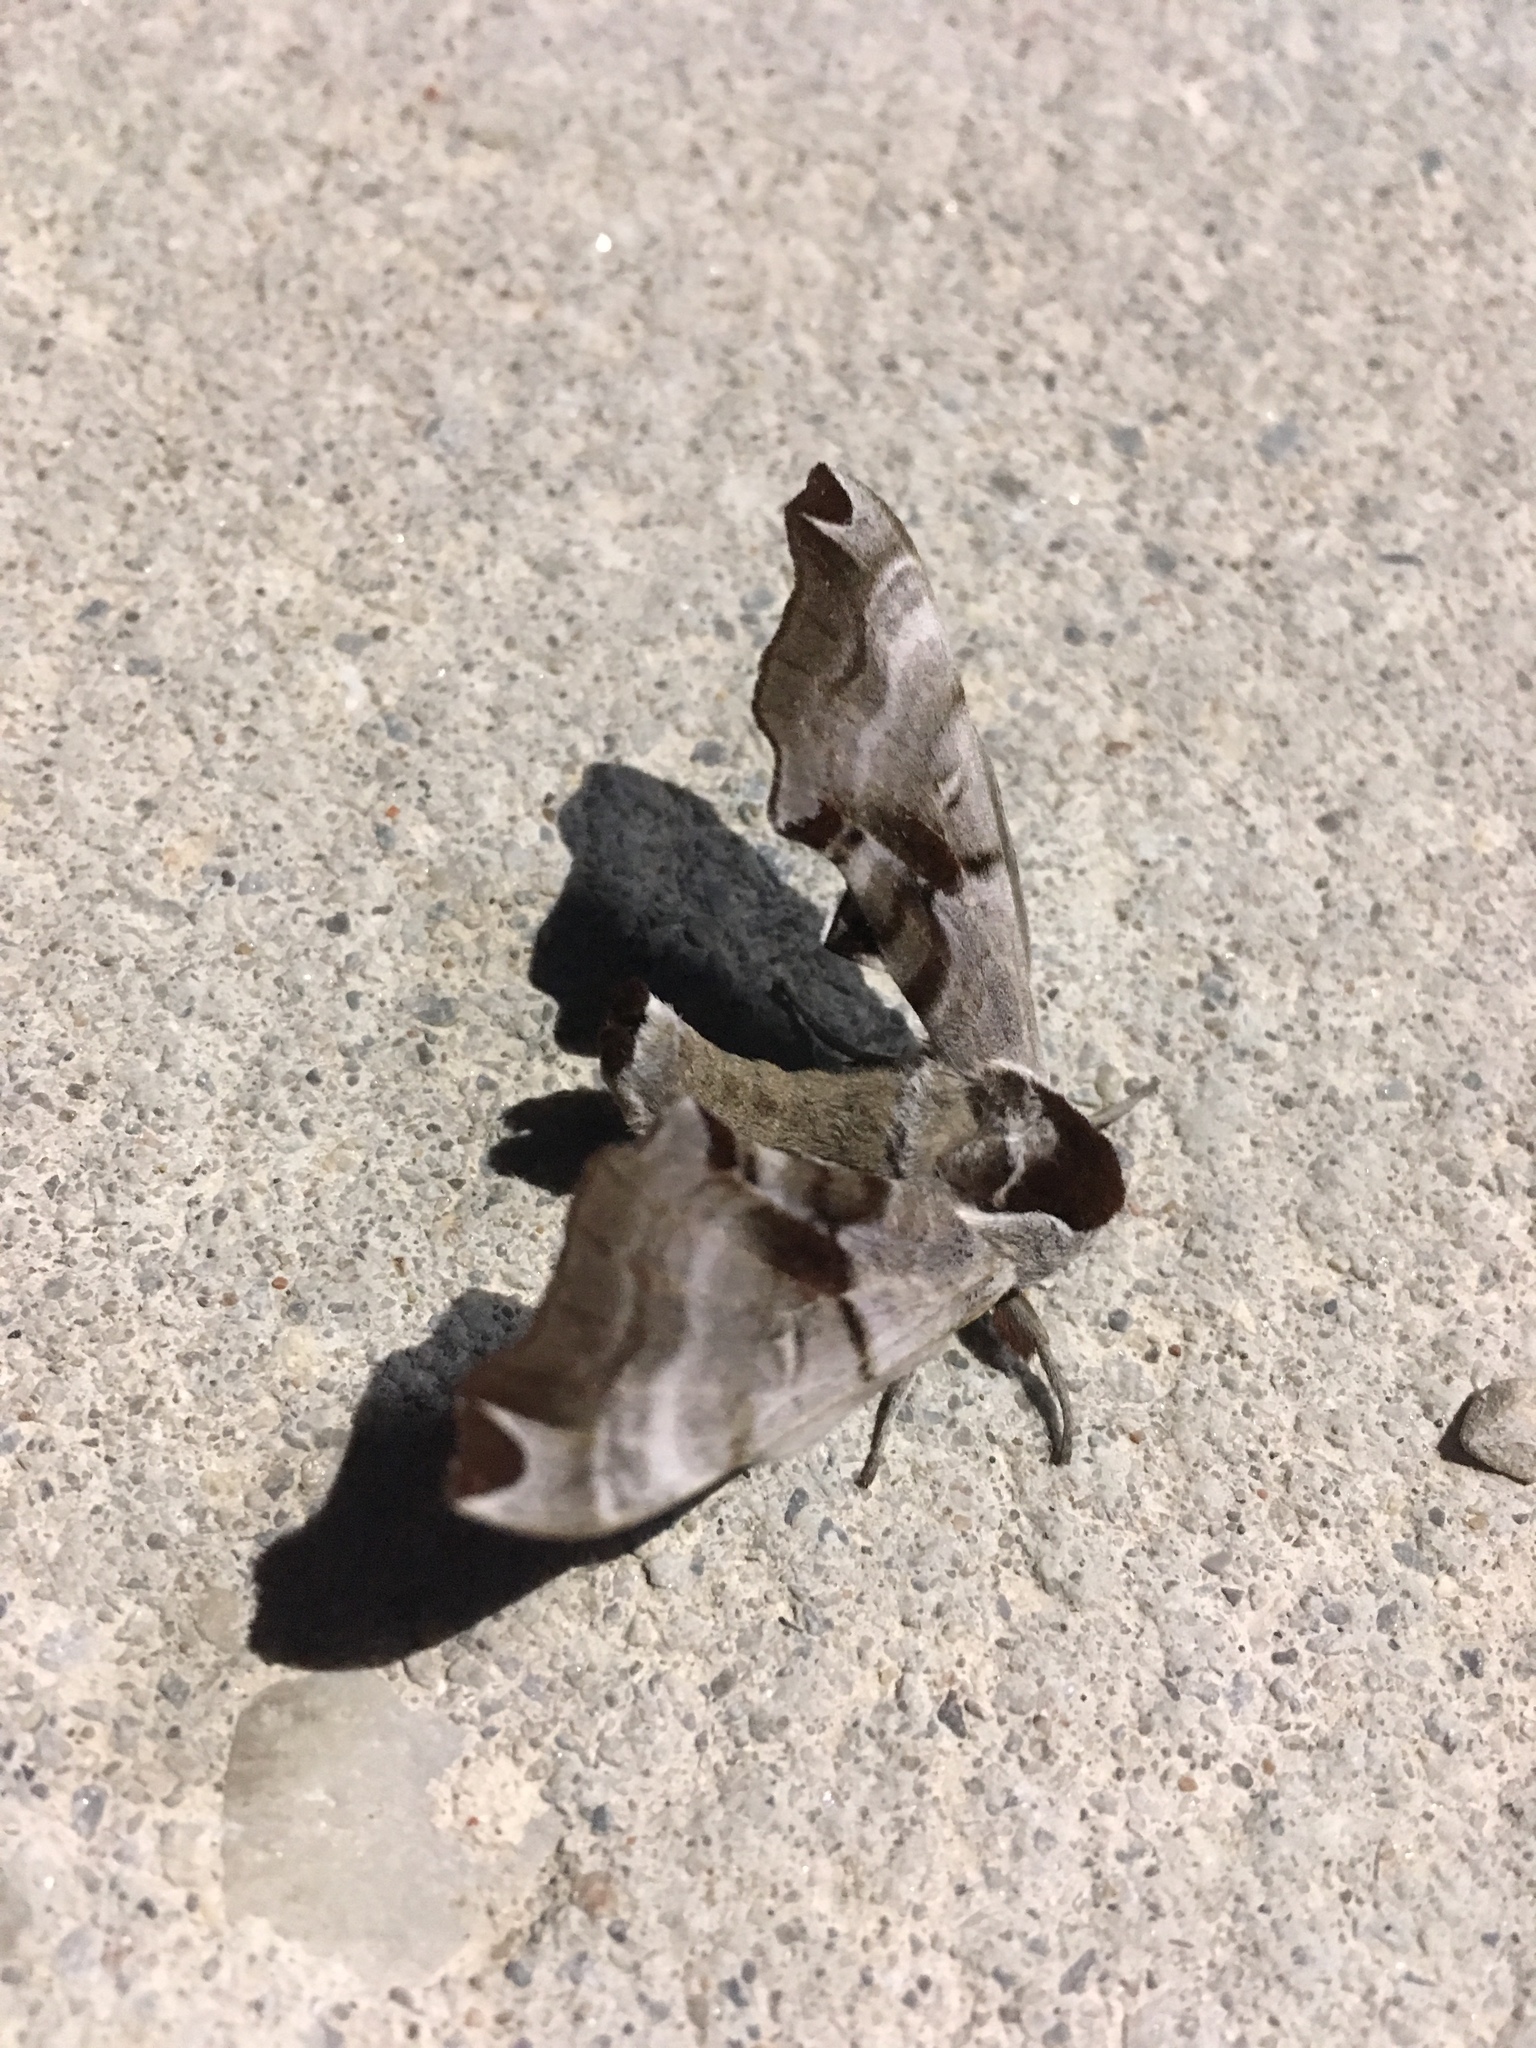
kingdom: Animalia
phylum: Arthropoda
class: Insecta
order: Lepidoptera
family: Sphingidae
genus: Smerinthus
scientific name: Smerinthus jamaicensis
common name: Twin spotted sphinx
